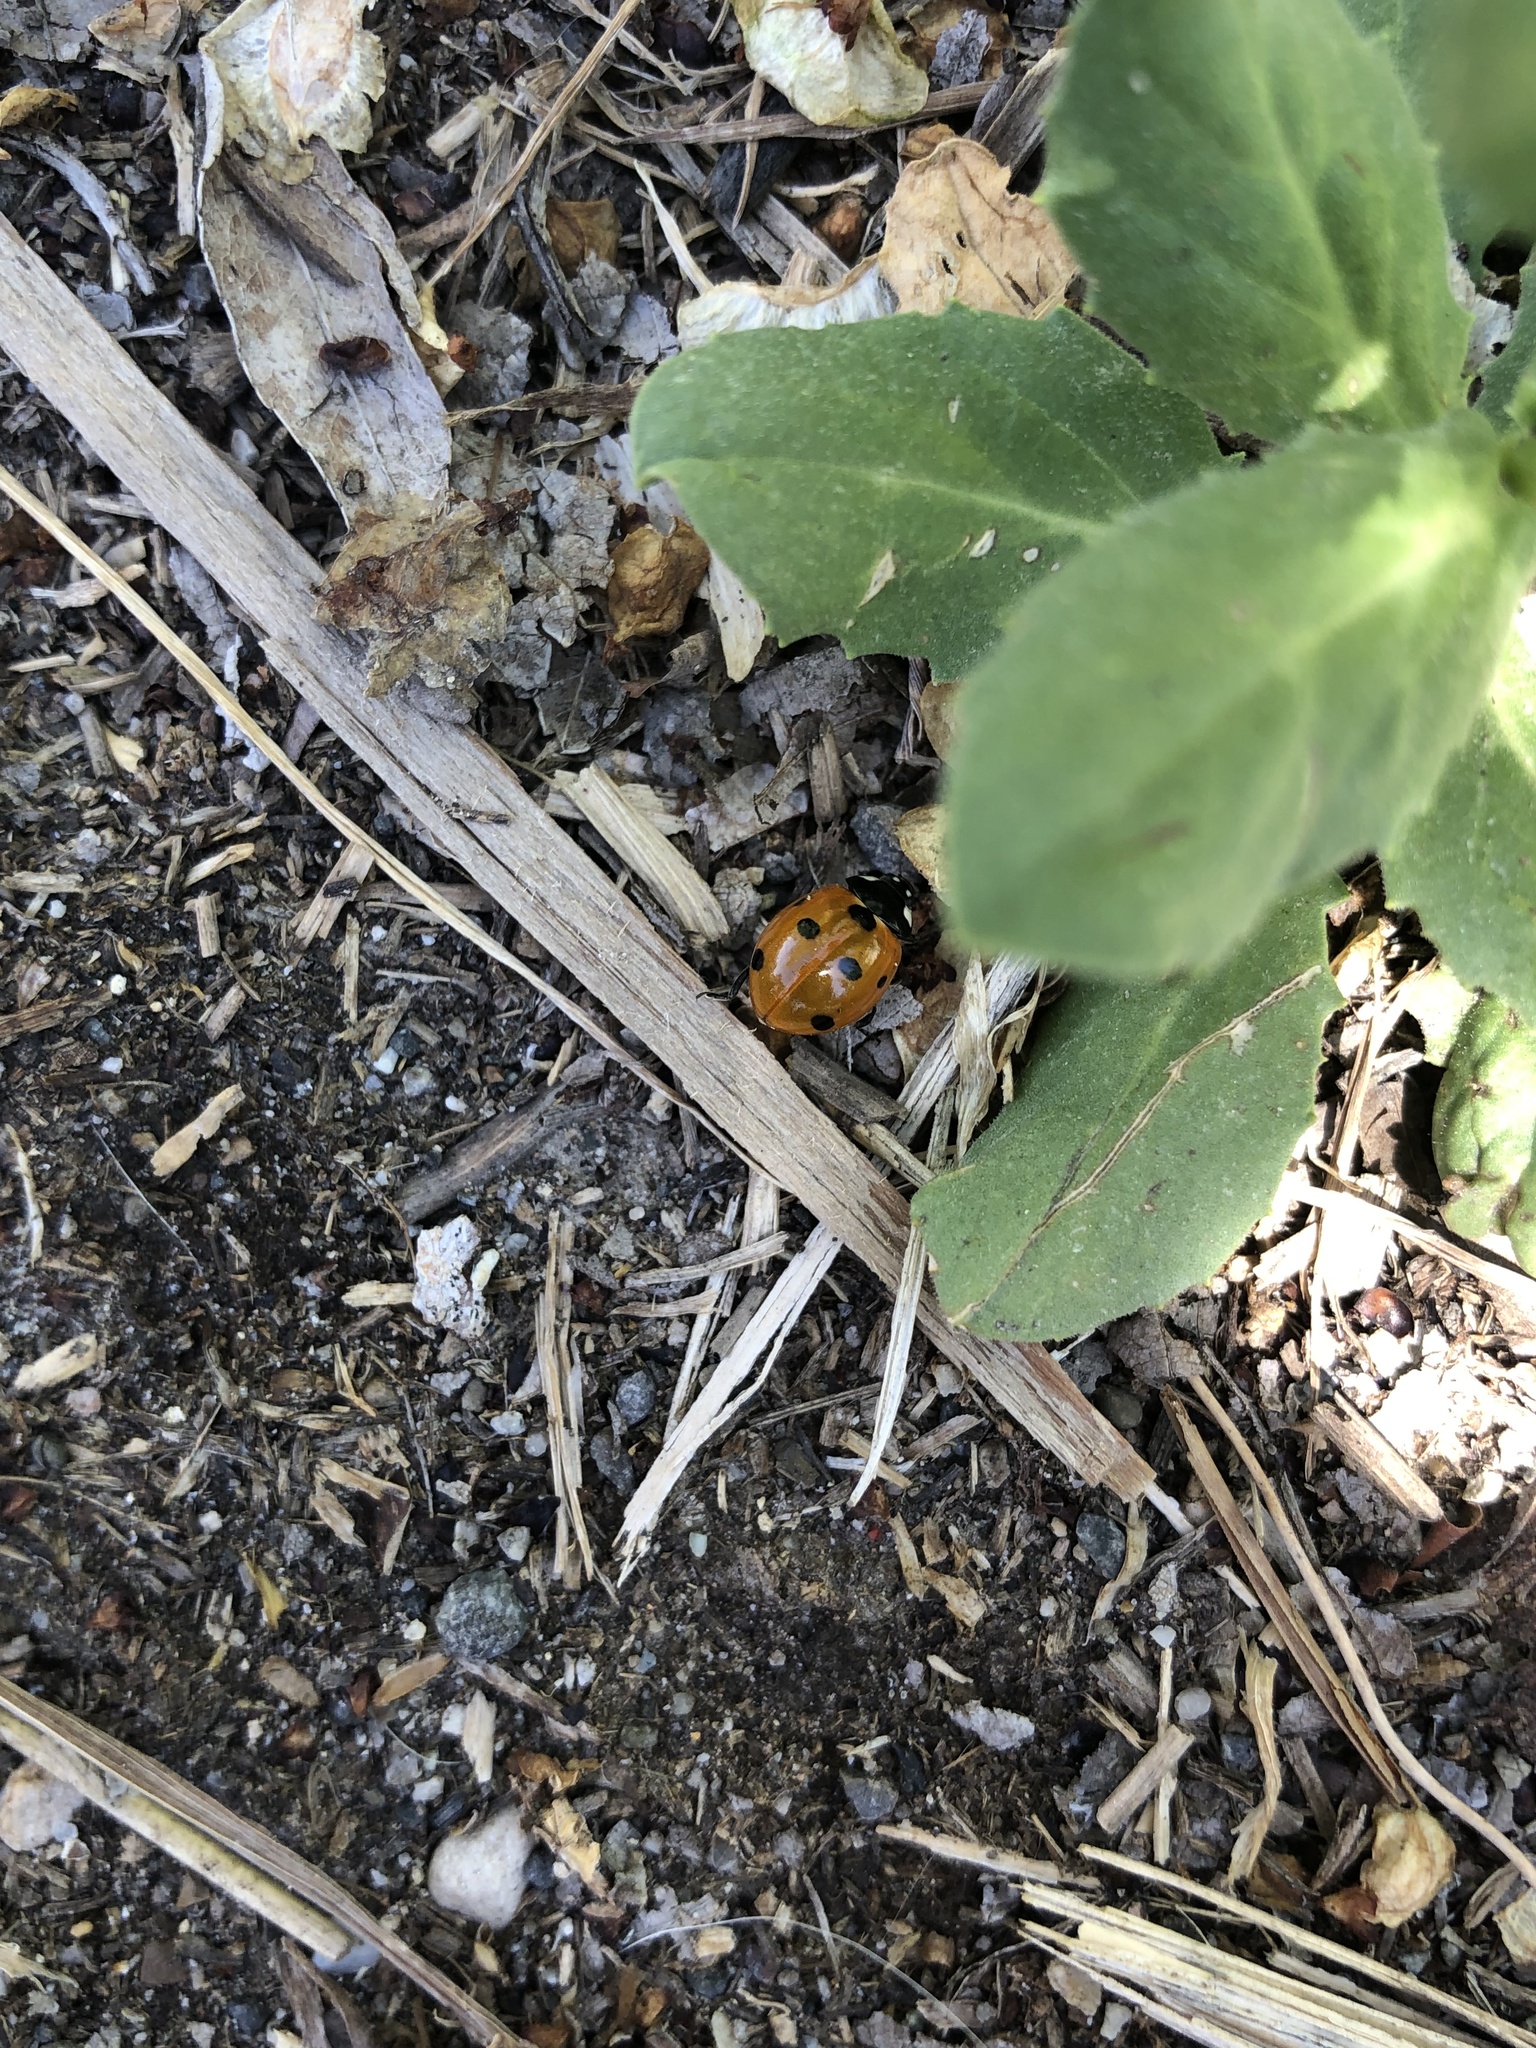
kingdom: Animalia
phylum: Arthropoda
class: Insecta
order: Coleoptera
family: Coccinellidae
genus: Coccinella
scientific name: Coccinella septempunctata
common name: Sevenspotted lady beetle
